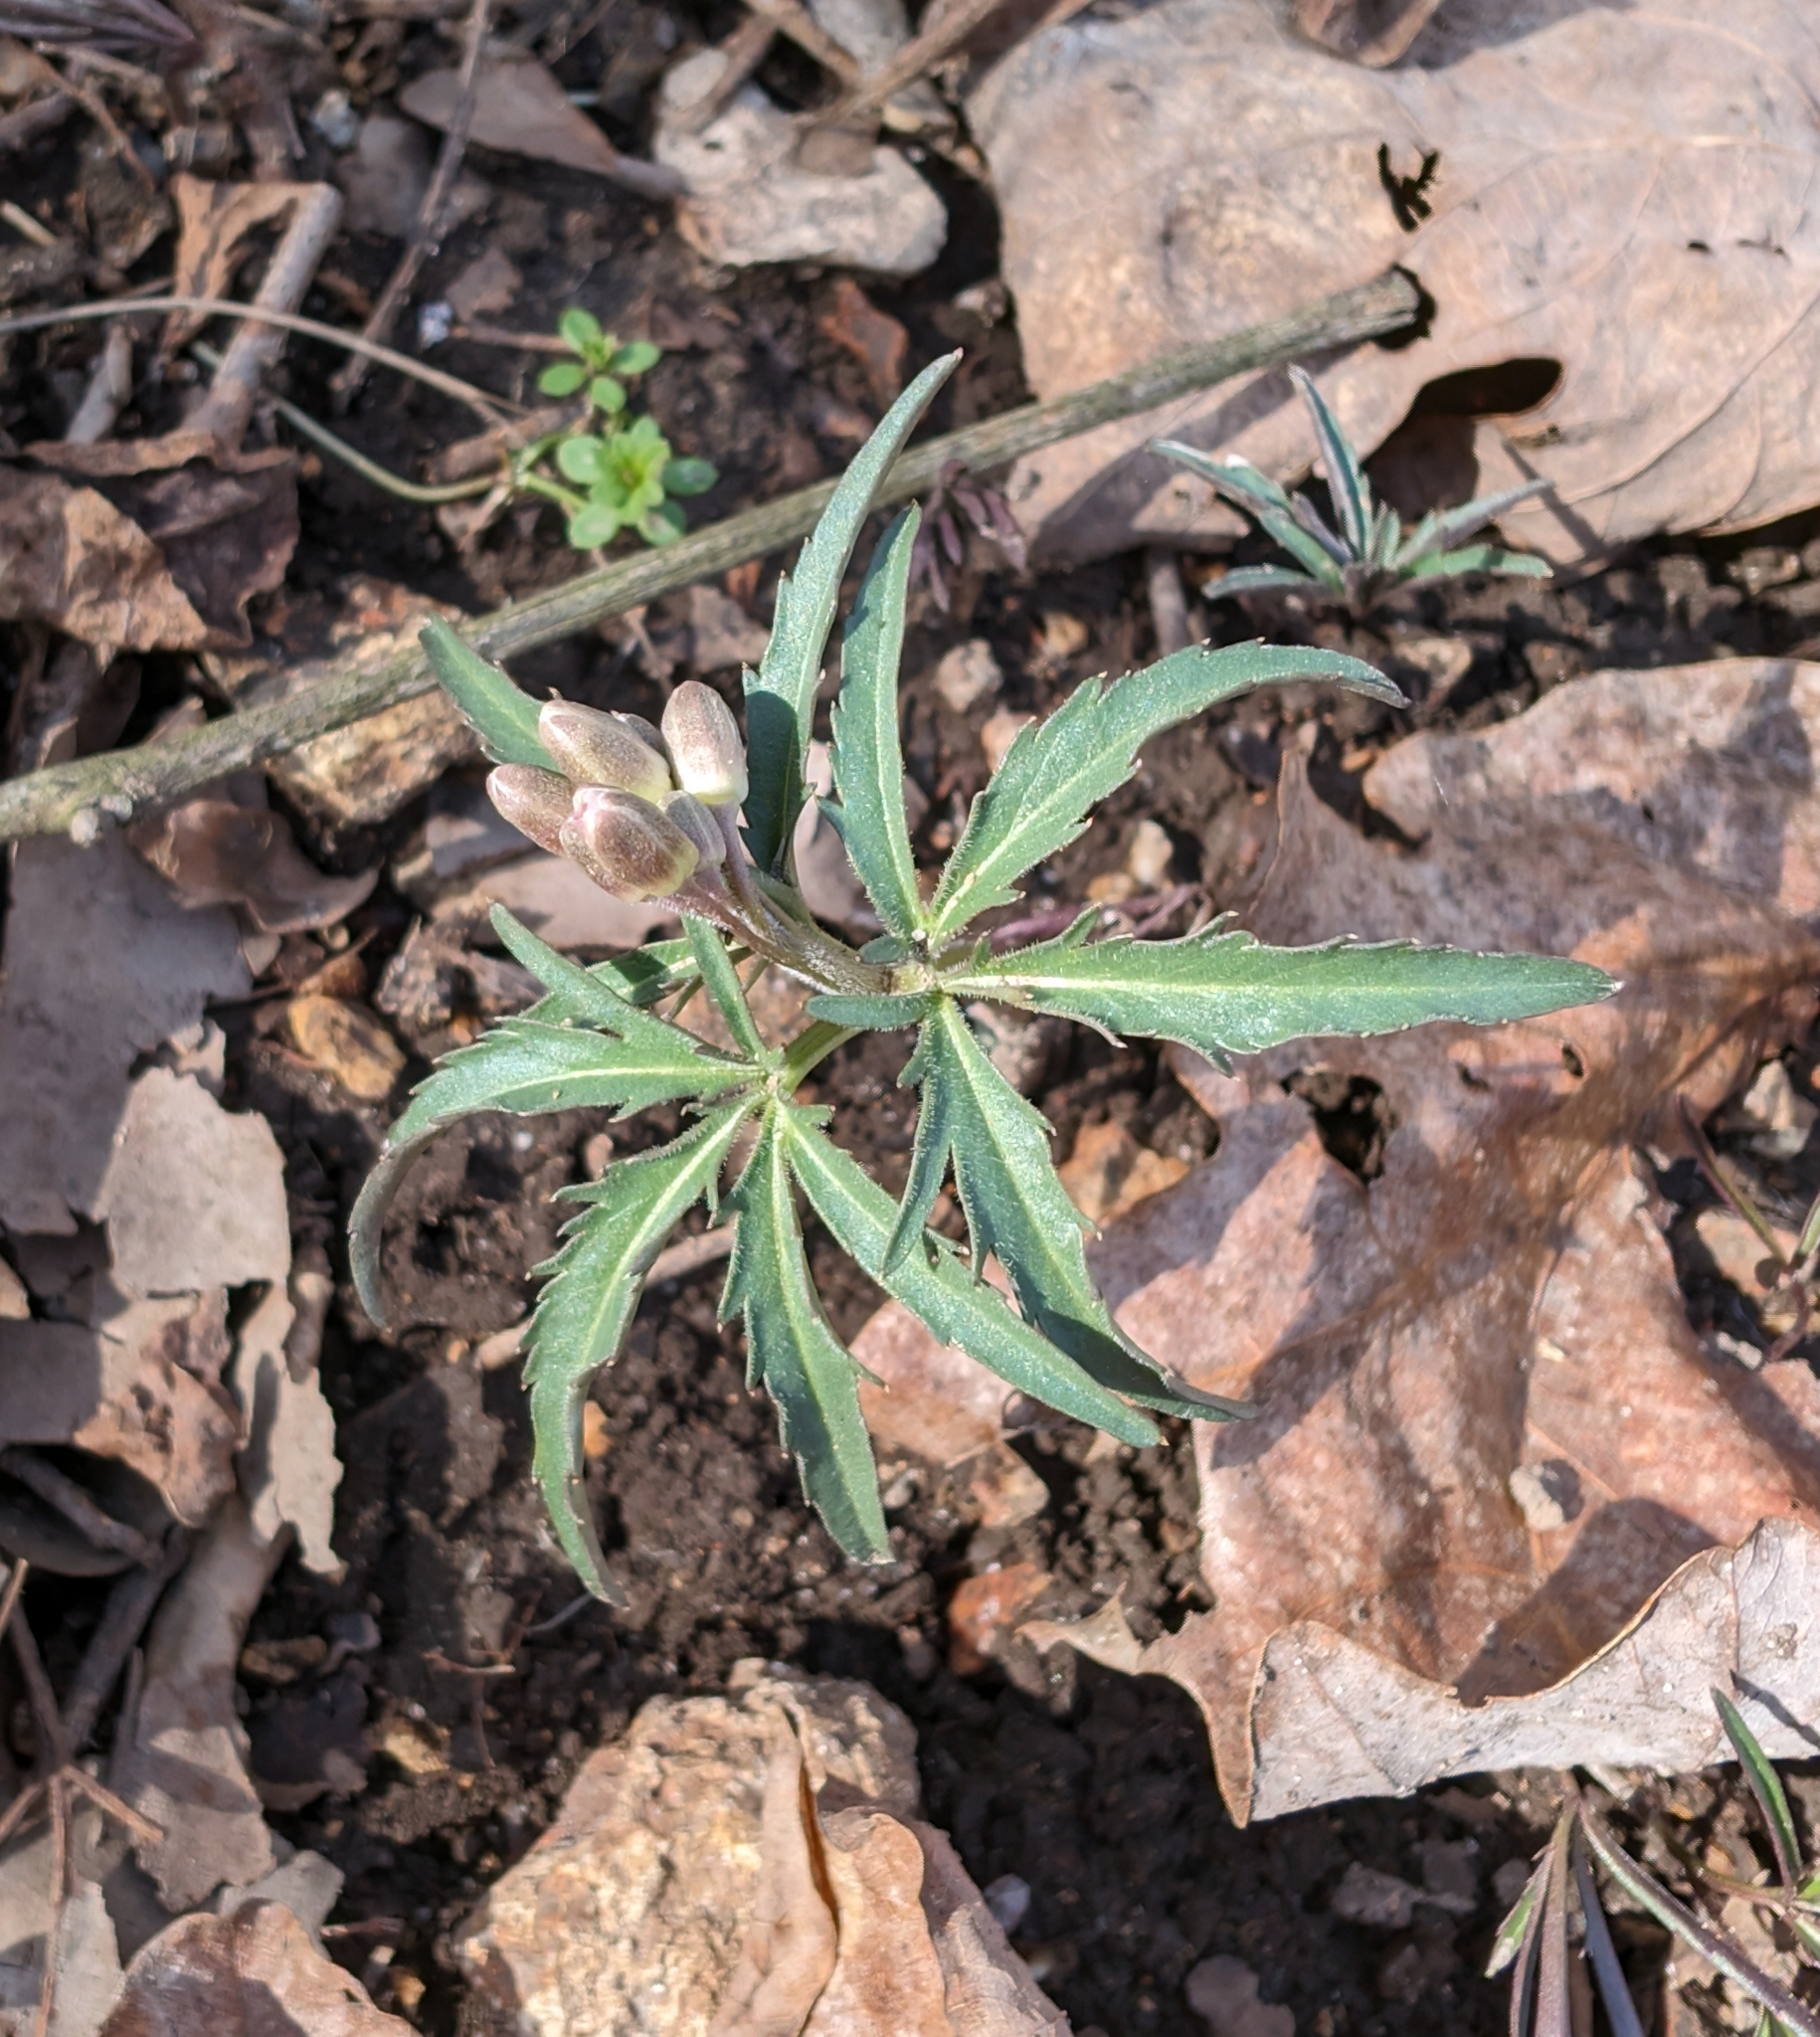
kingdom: Plantae
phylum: Tracheophyta
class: Magnoliopsida
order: Brassicales
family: Brassicaceae
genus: Cardamine
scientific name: Cardamine concatenata
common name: Cut-leaf toothcup
